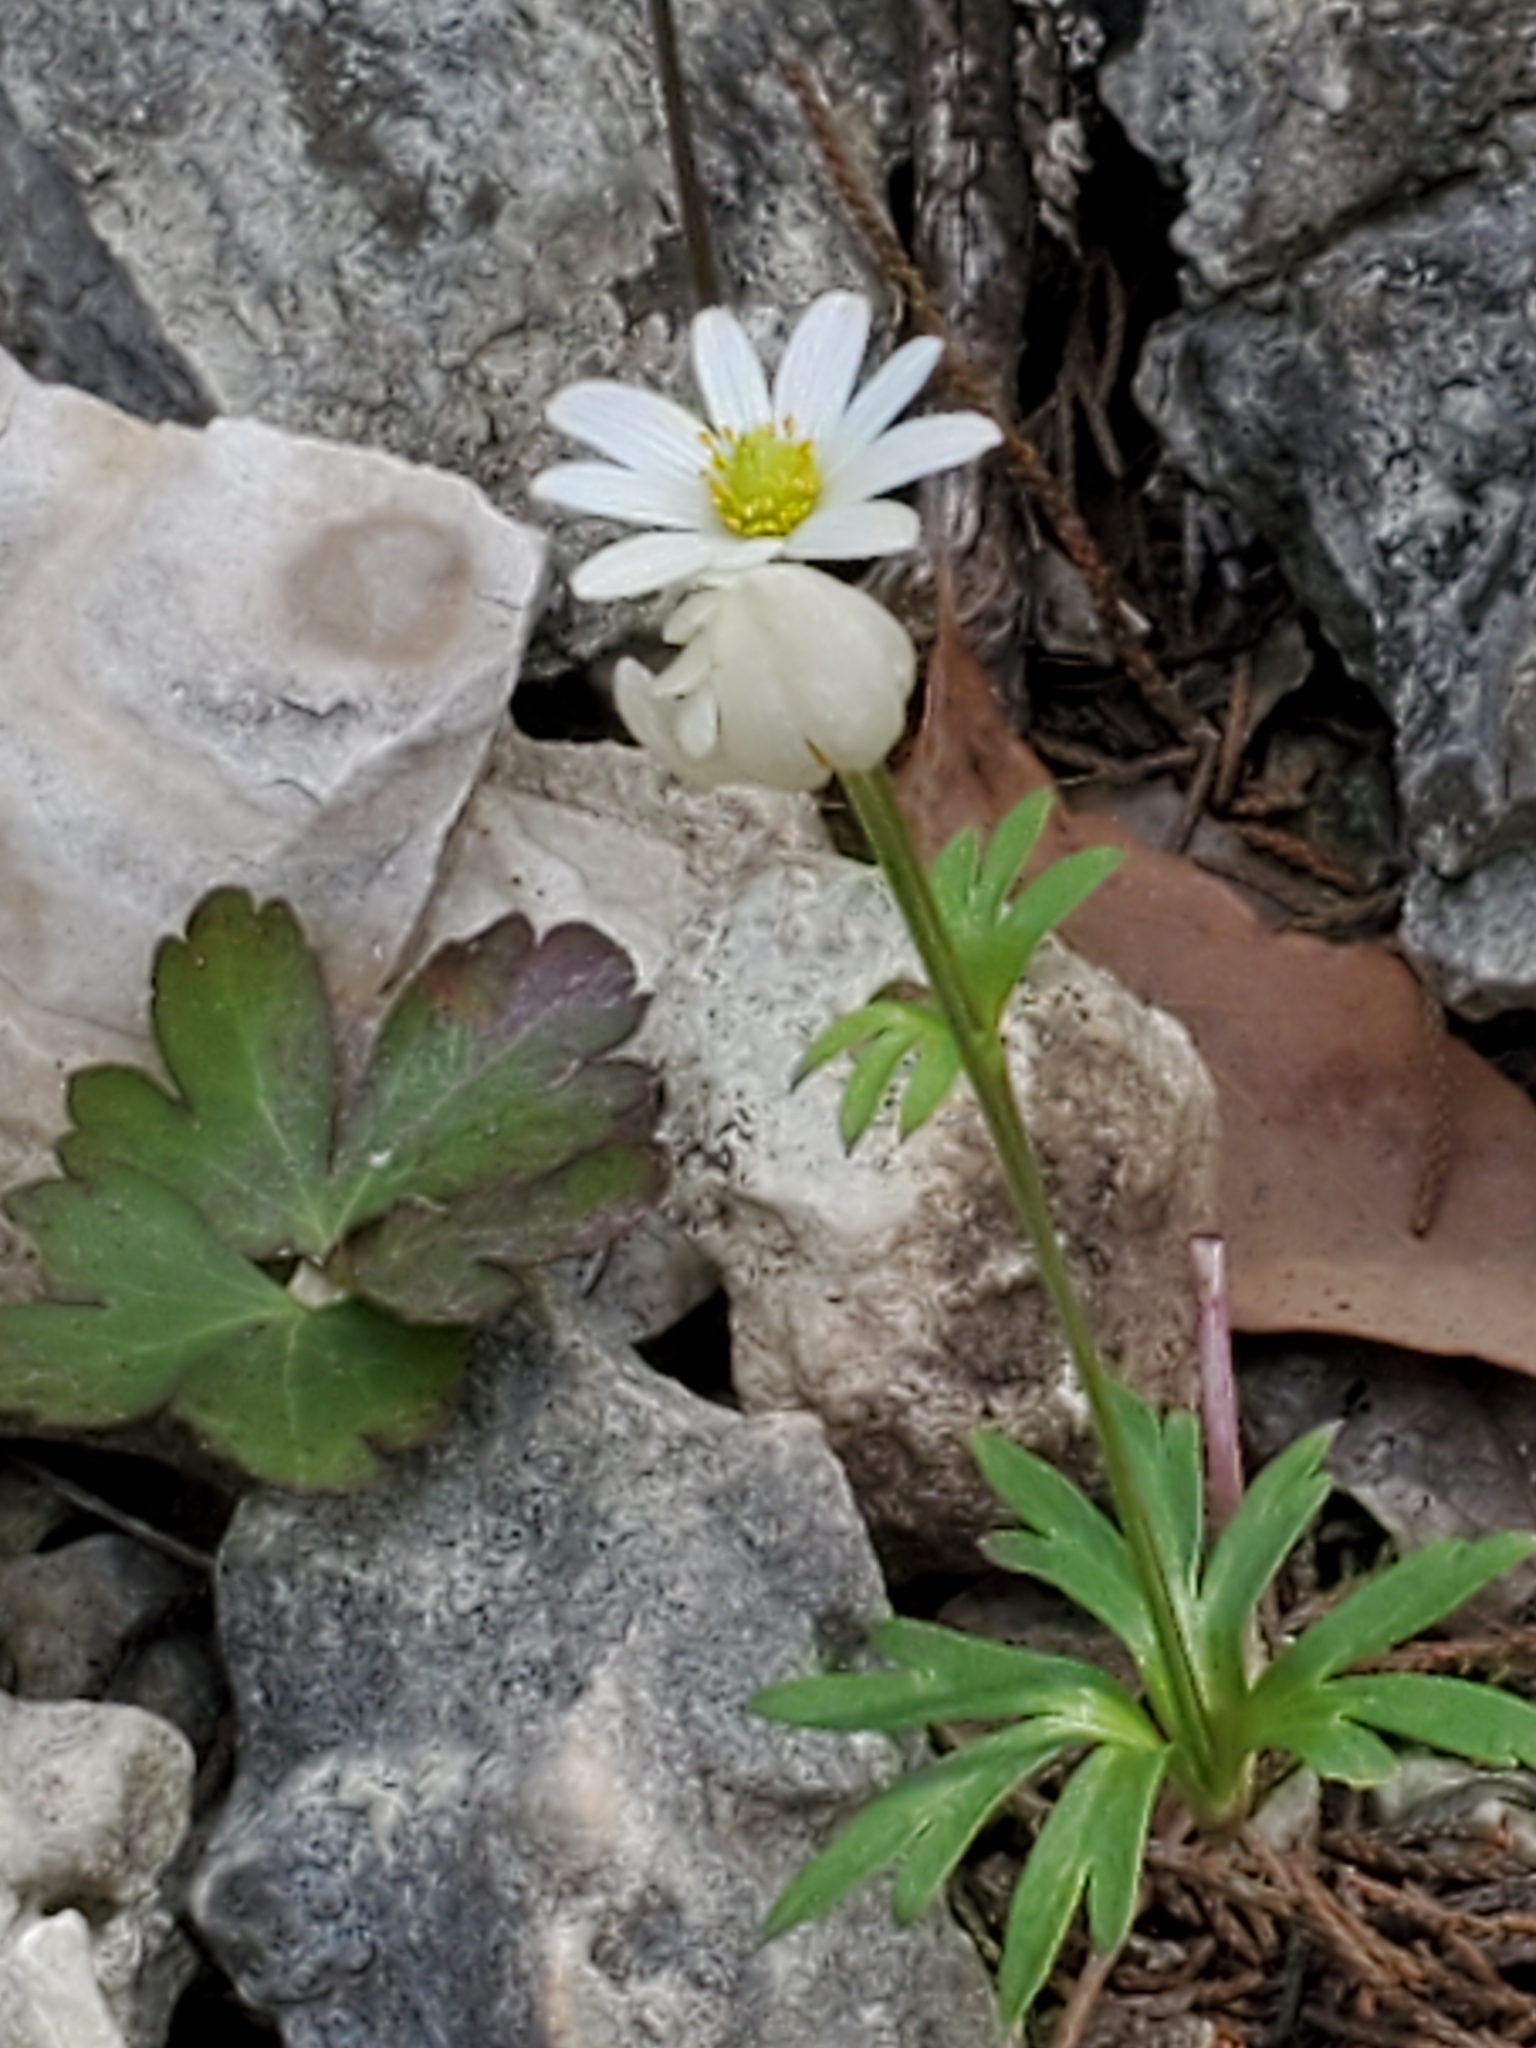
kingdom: Plantae
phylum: Tracheophyta
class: Magnoliopsida
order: Ranunculales
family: Ranunculaceae
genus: Anemone
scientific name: Anemone edwardsiana
